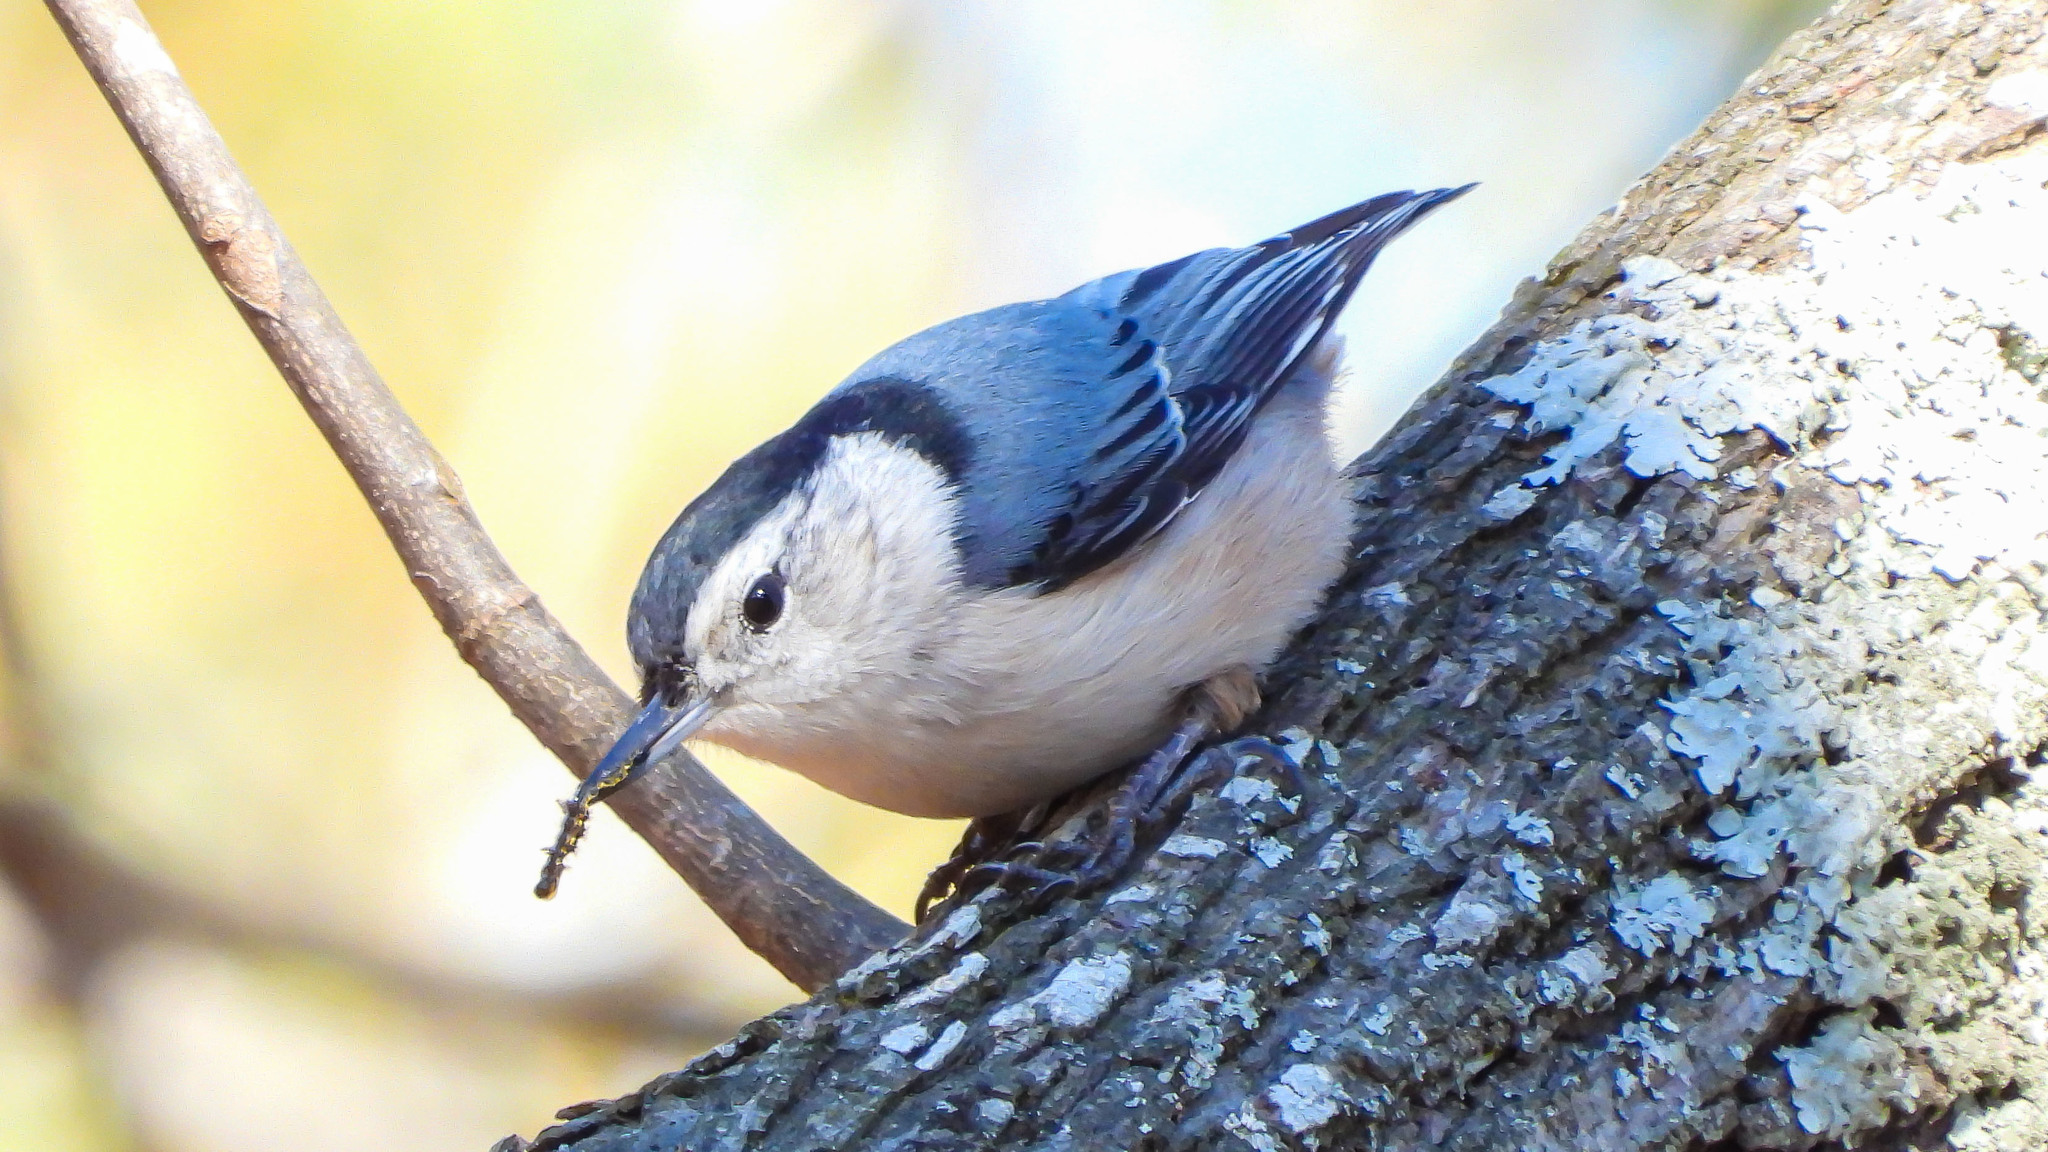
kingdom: Animalia
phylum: Chordata
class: Aves
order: Passeriformes
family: Sittidae
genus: Sitta
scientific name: Sitta carolinensis
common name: White-breasted nuthatch
